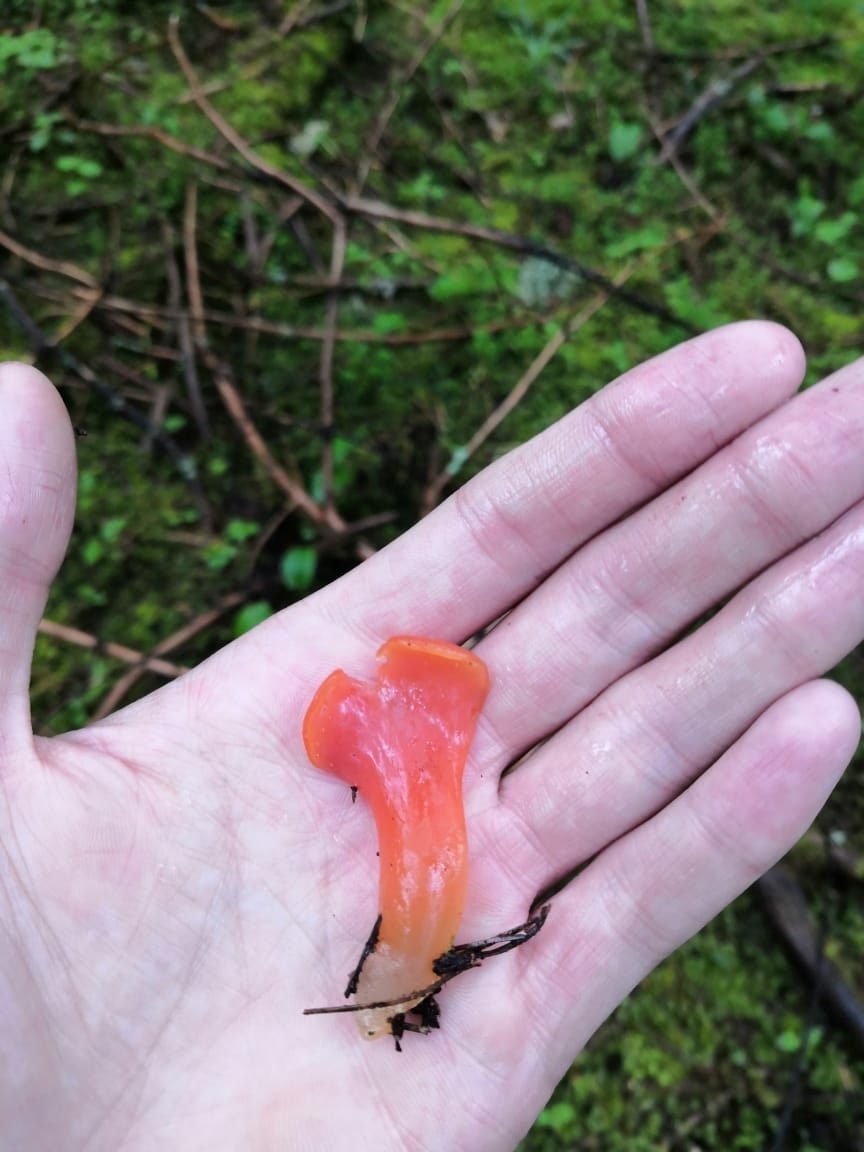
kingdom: Fungi
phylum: Basidiomycota
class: Agaricomycetes
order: Auriculariales
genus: Guepinia
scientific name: Guepinia helvelloides
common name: Salmon salad
